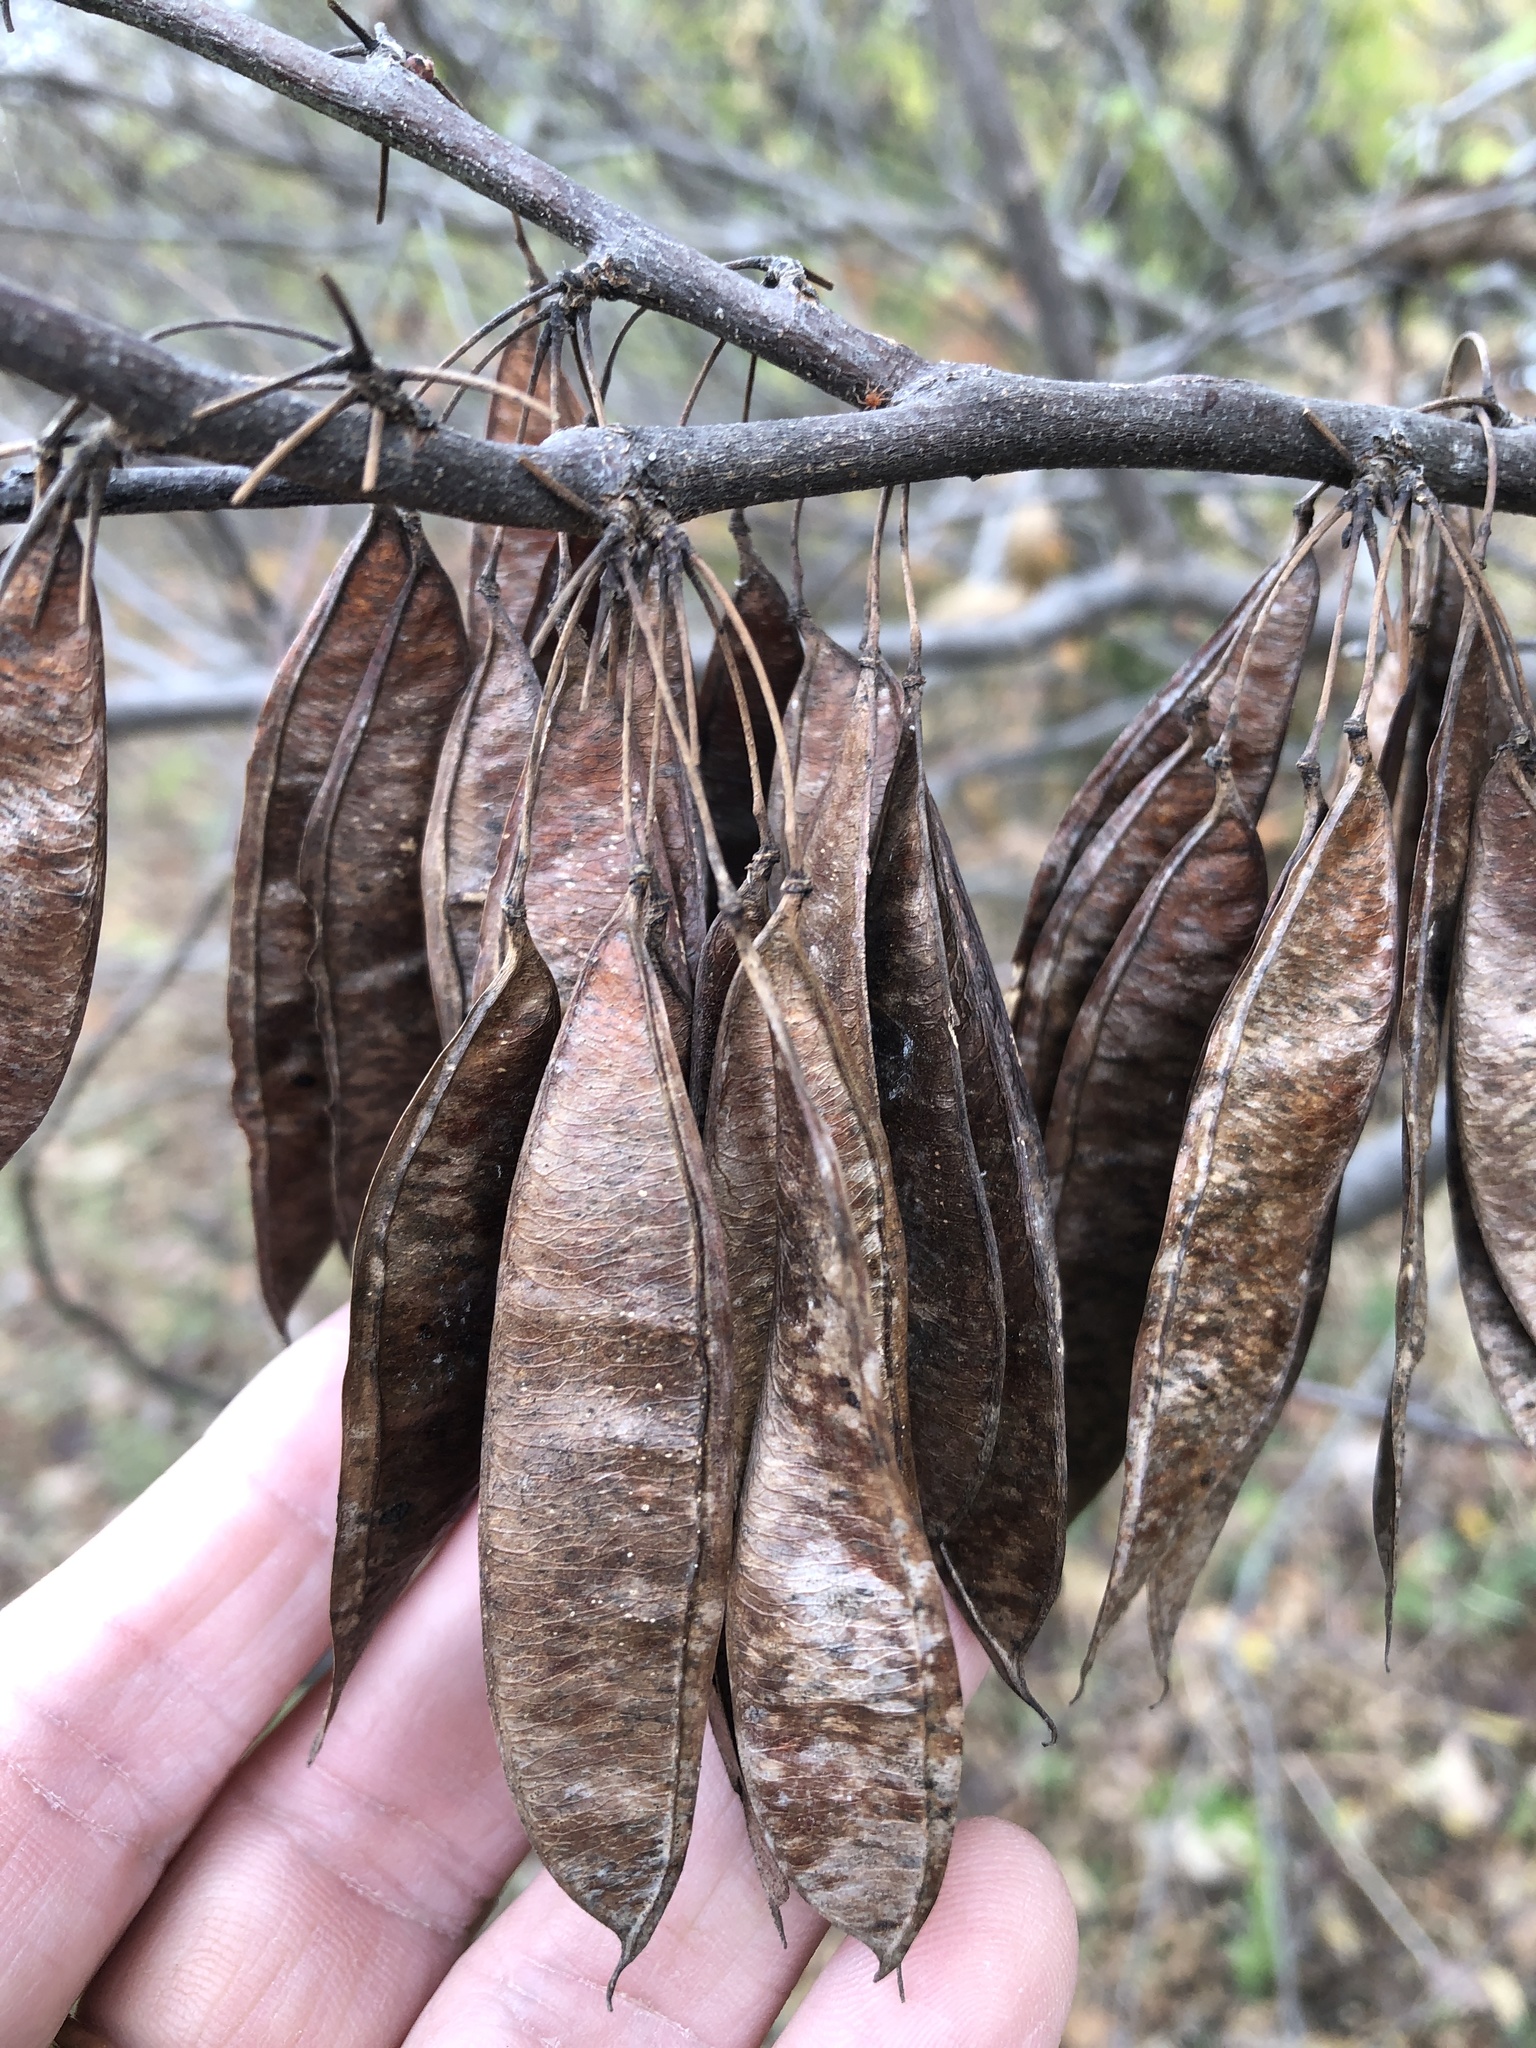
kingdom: Plantae
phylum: Tracheophyta
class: Magnoliopsida
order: Fabales
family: Fabaceae
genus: Cercis
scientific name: Cercis canadensis
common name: Eastern redbud
